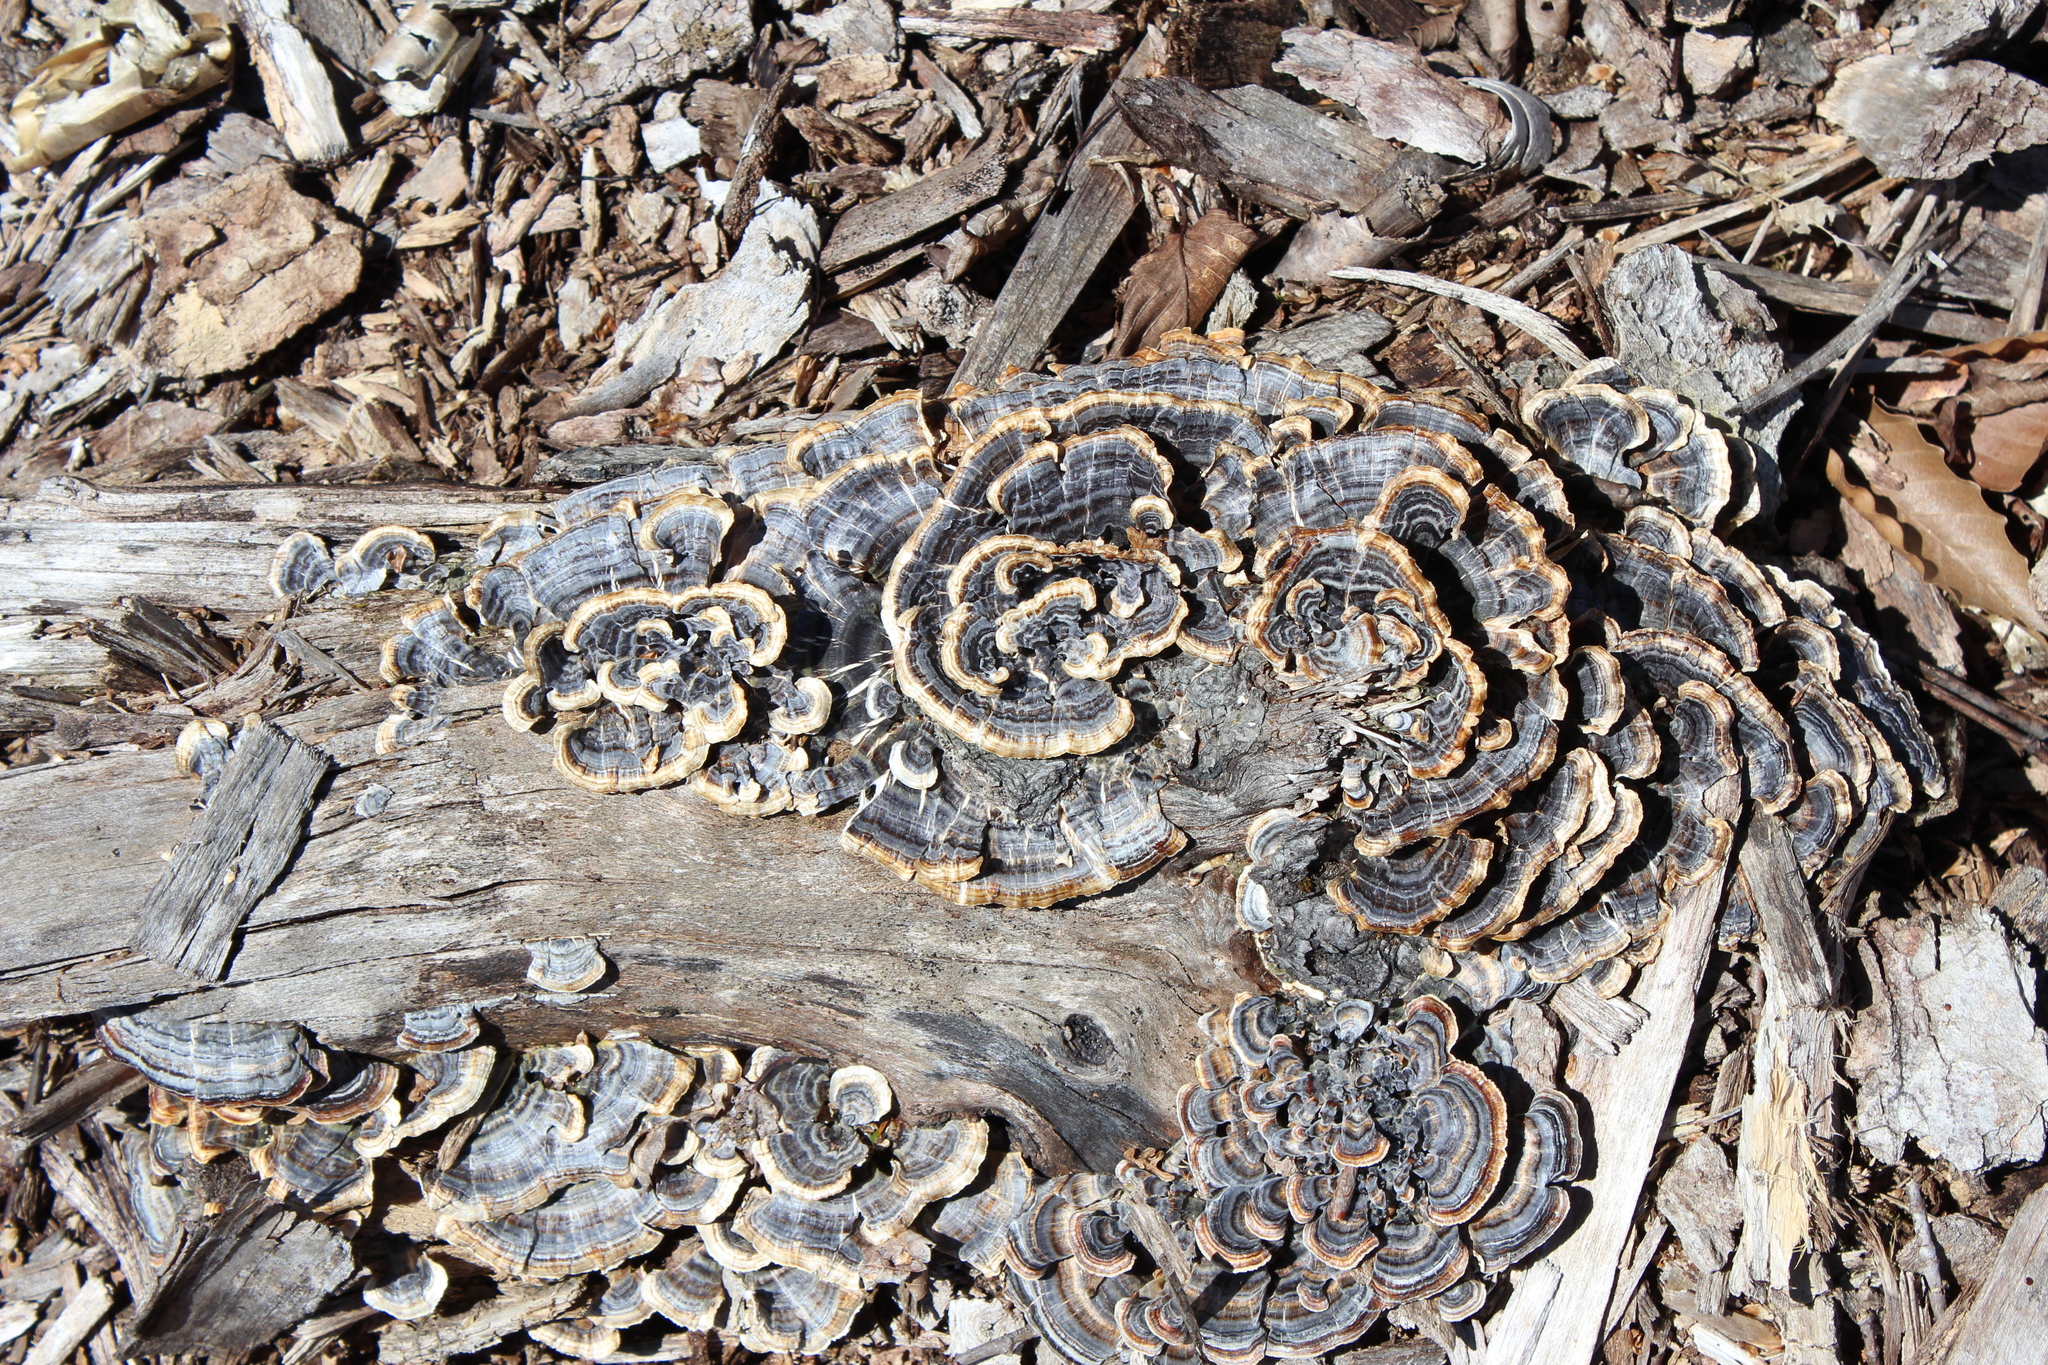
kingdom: Fungi
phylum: Basidiomycota
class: Agaricomycetes
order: Polyporales
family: Polyporaceae
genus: Trametes
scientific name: Trametes versicolor
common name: Turkeytail
